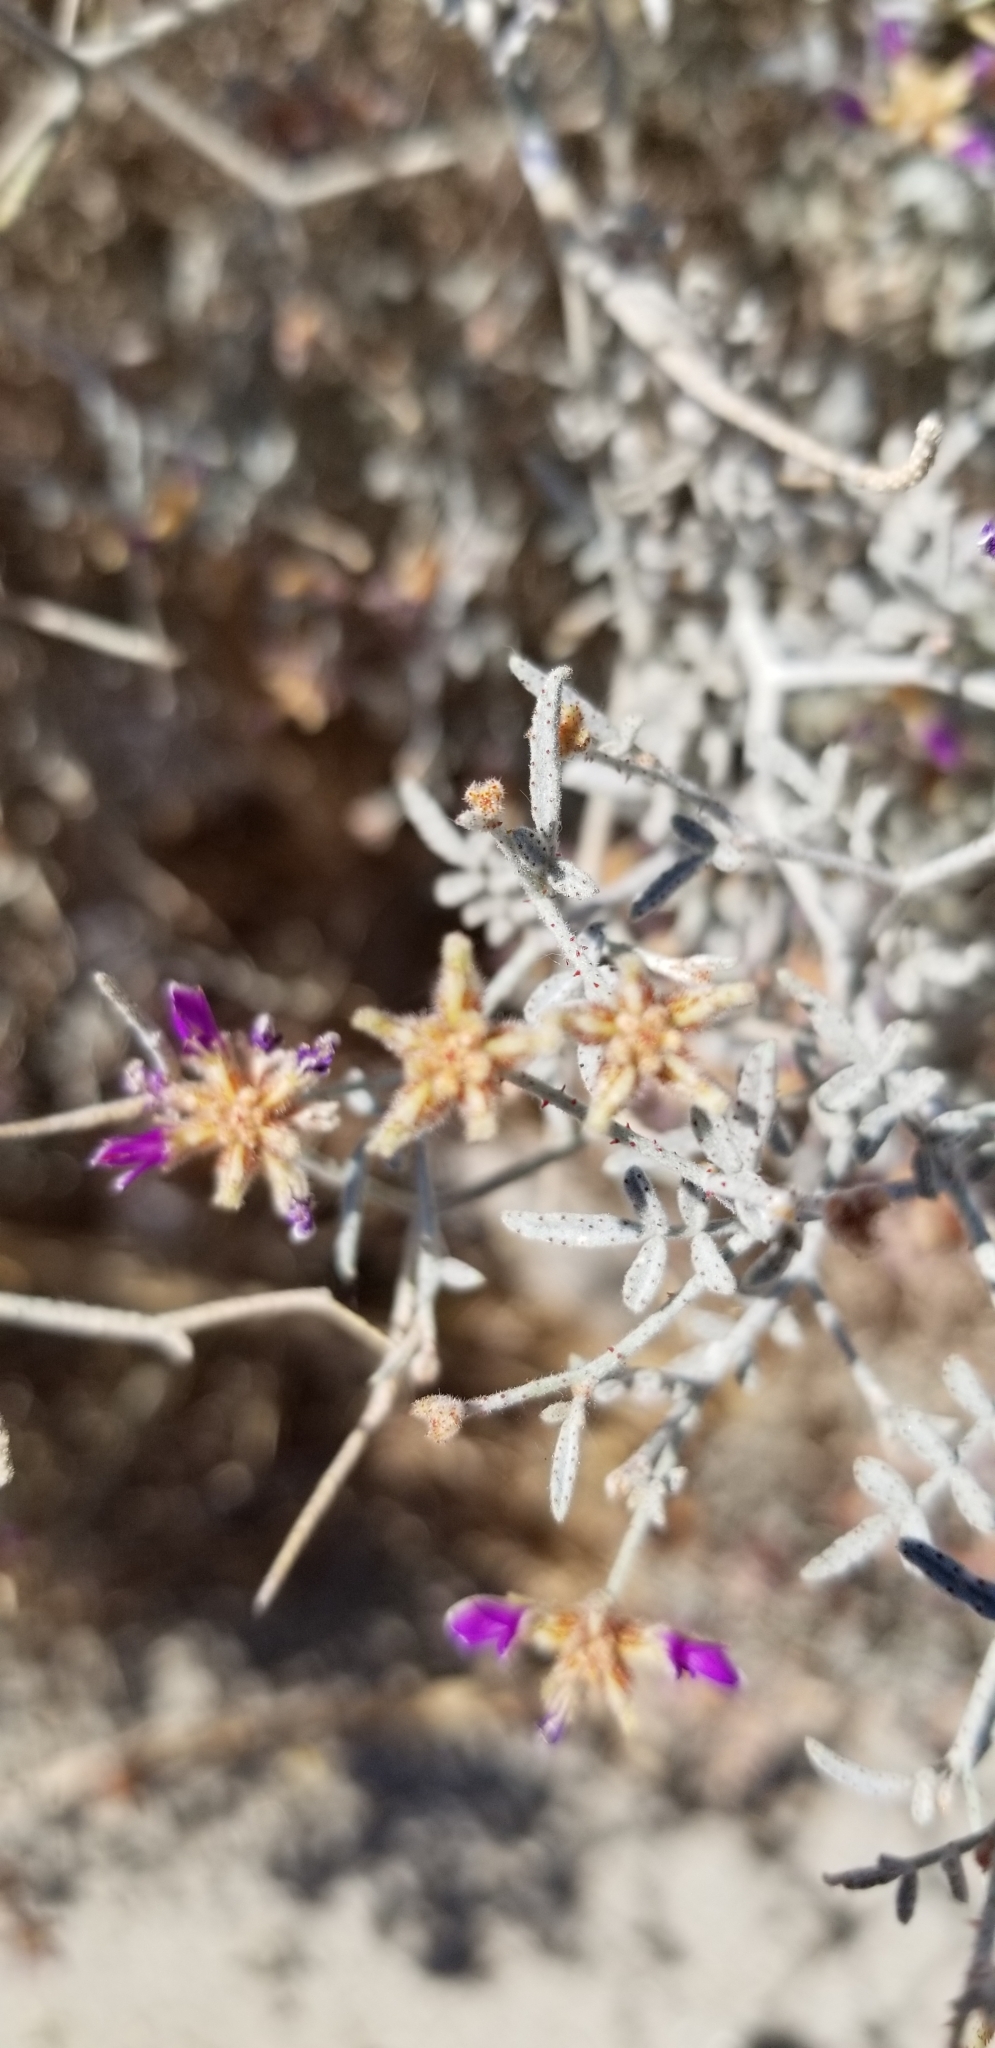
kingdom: Plantae
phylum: Tracheophyta
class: Magnoliopsida
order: Fabales
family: Fabaceae
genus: Psorothamnus
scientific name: Psorothamnus emoryi
